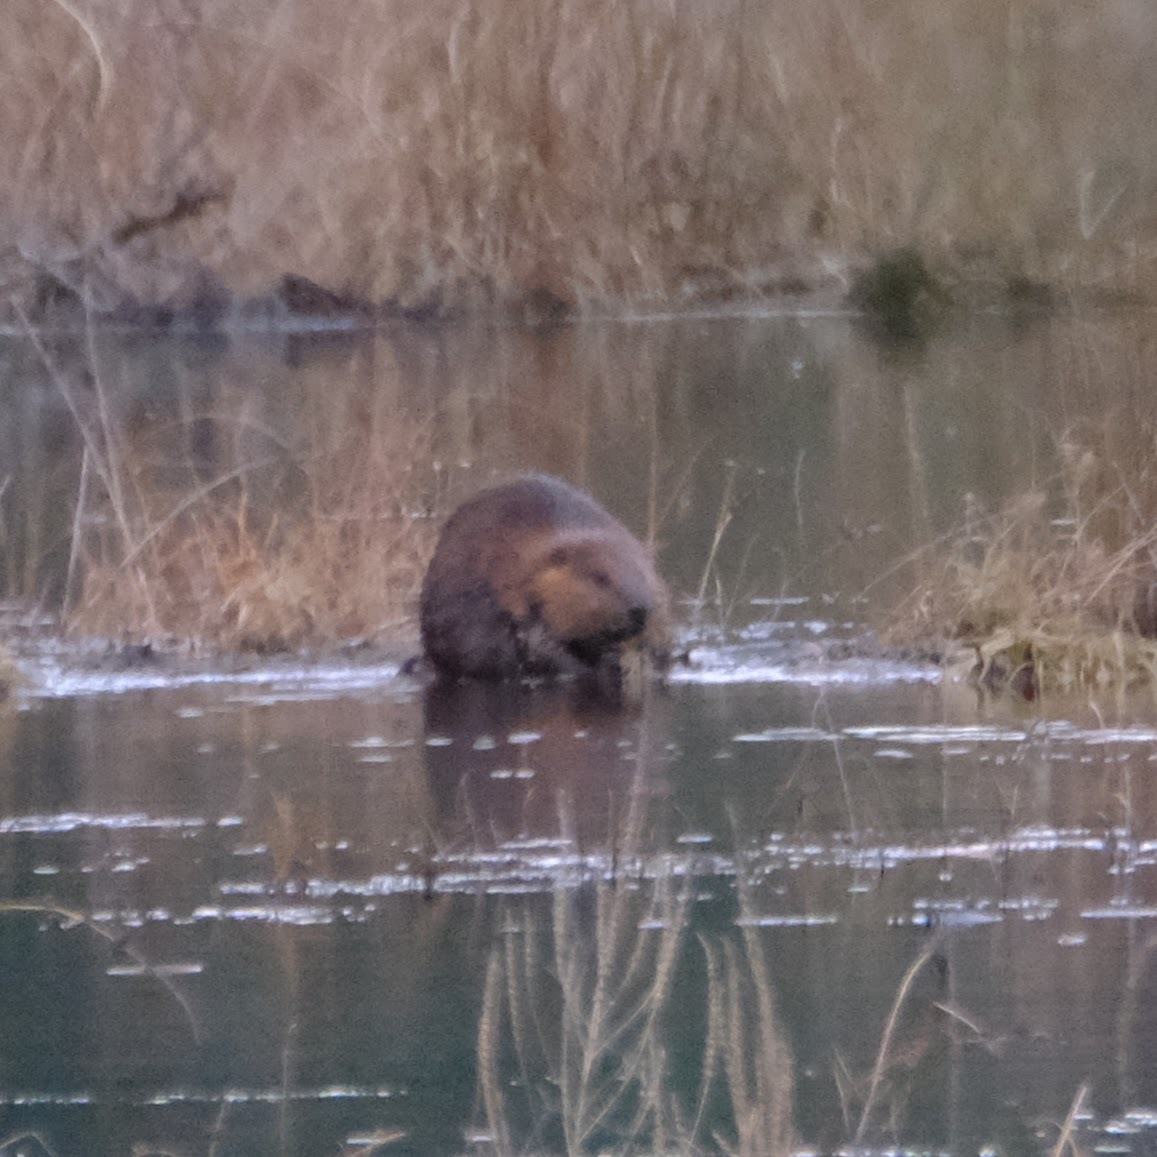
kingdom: Animalia
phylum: Chordata
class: Mammalia
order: Rodentia
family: Castoridae
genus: Castor
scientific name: Castor canadensis
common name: American beaver
